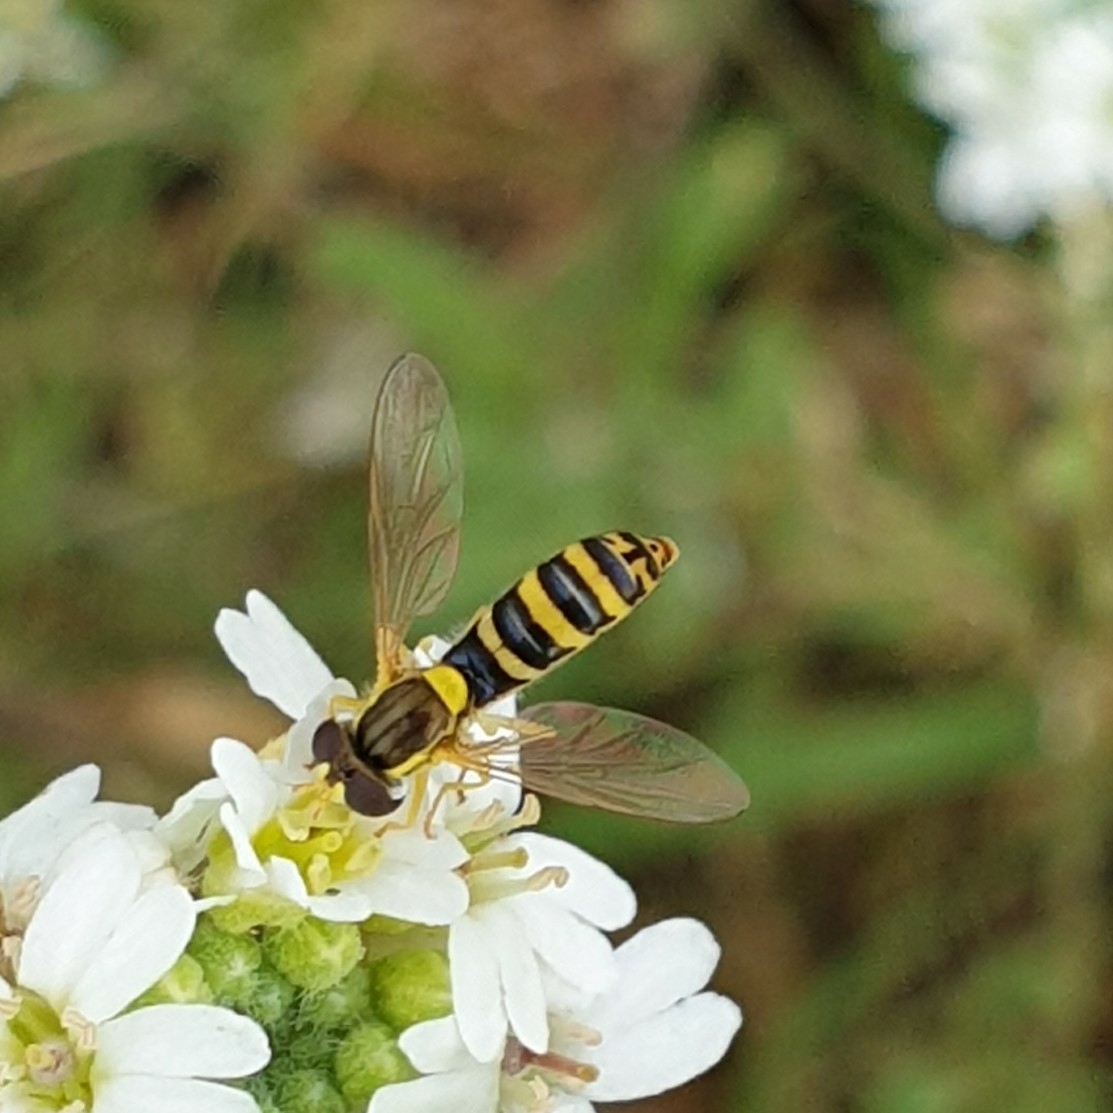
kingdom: Animalia
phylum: Arthropoda
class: Insecta
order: Diptera
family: Syrphidae
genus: Sphaerophoria
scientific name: Sphaerophoria
